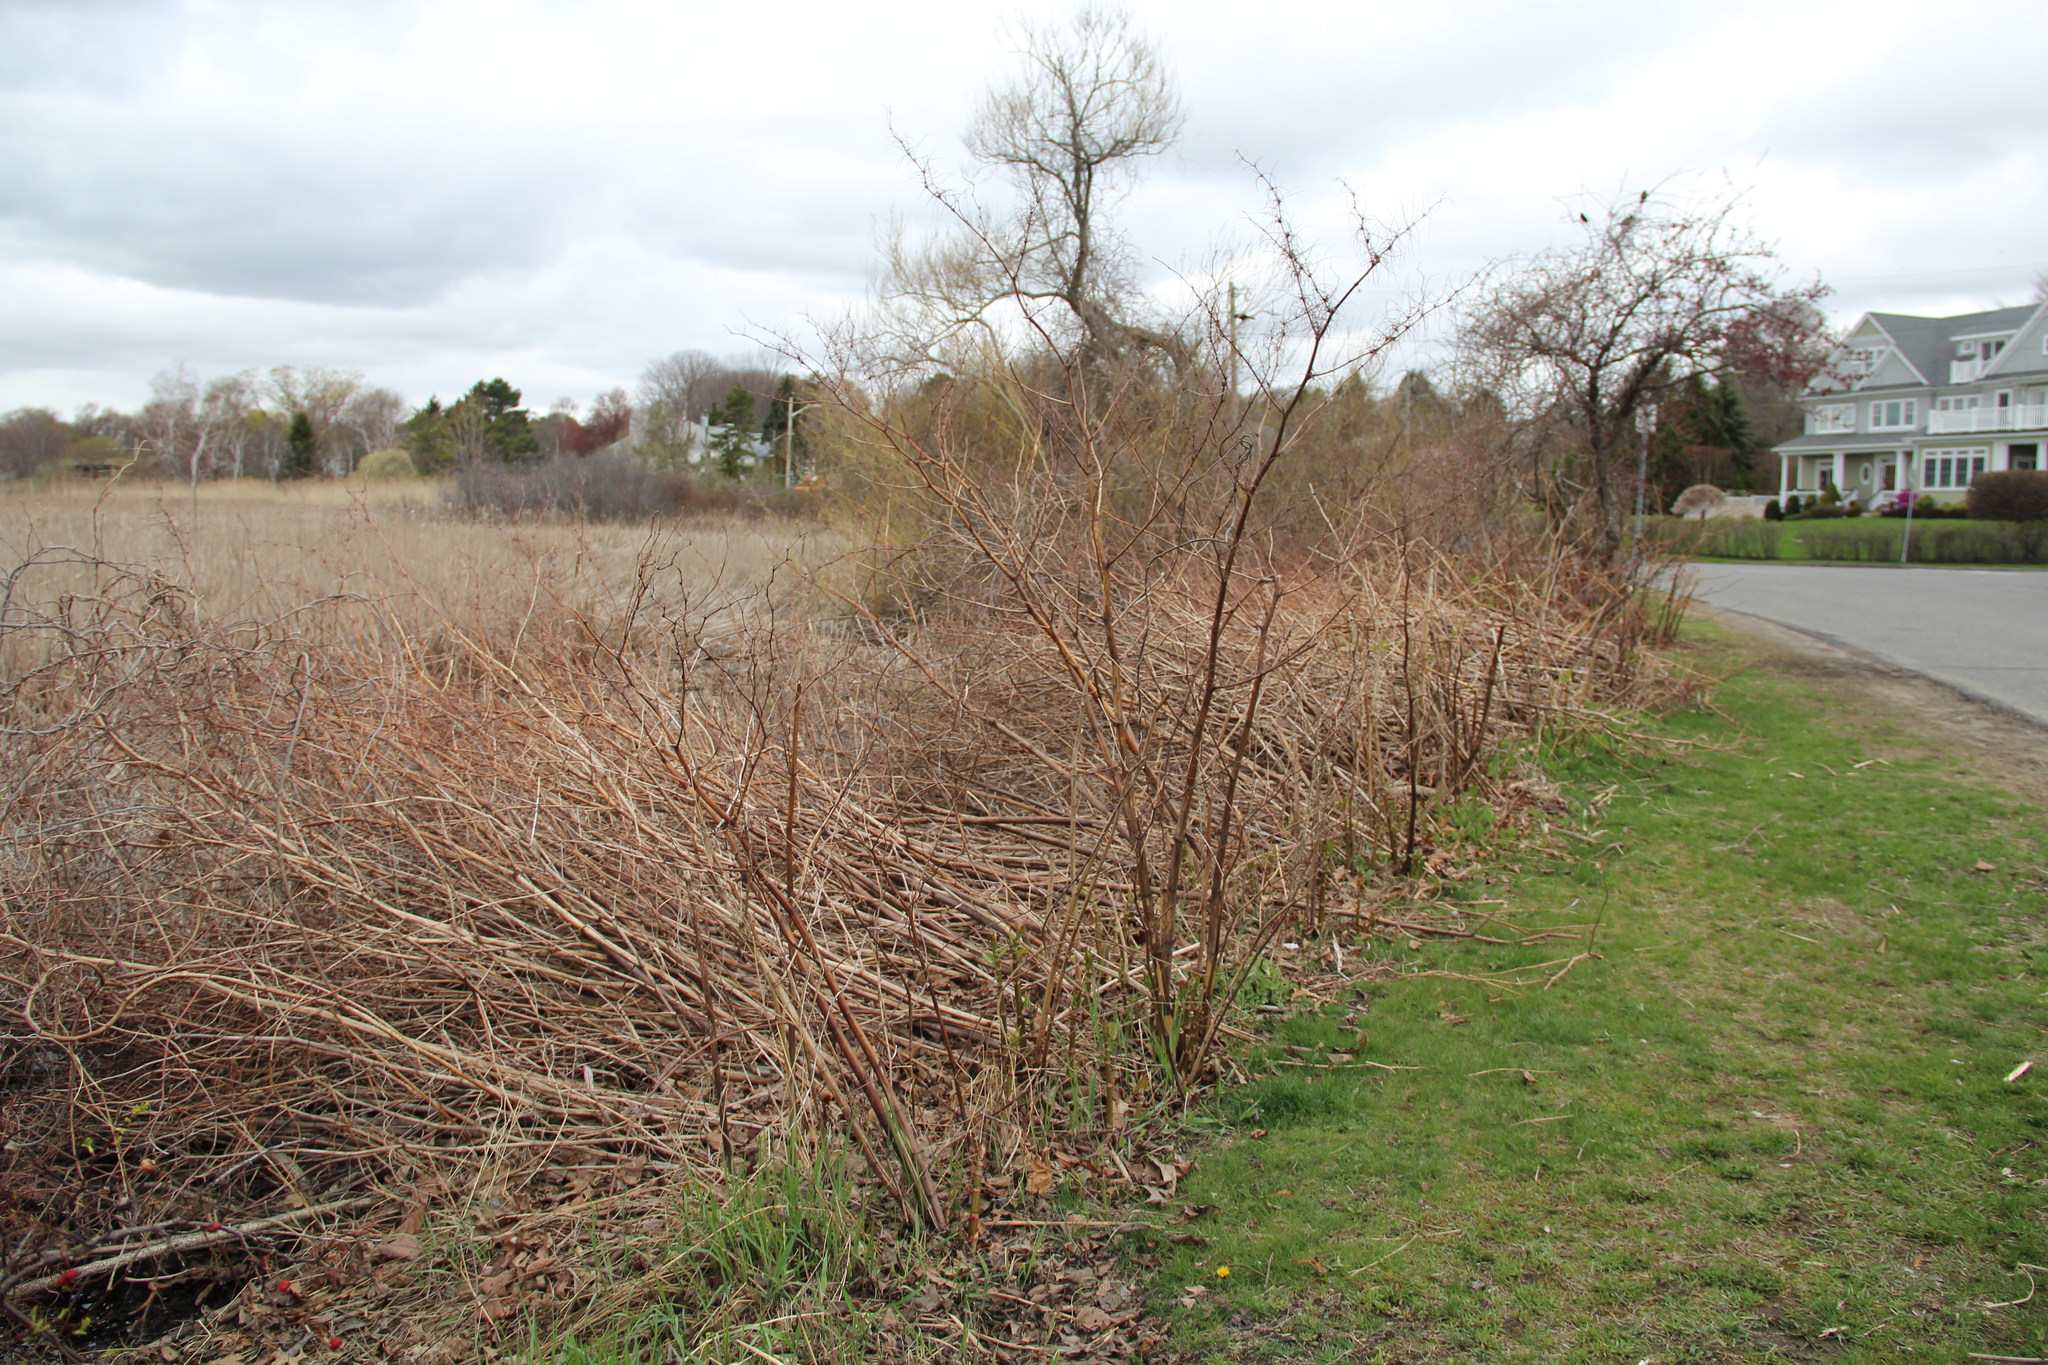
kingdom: Plantae
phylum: Tracheophyta
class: Magnoliopsida
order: Caryophyllales
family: Polygonaceae
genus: Reynoutria
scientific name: Reynoutria japonica
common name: Japanese knotweed
